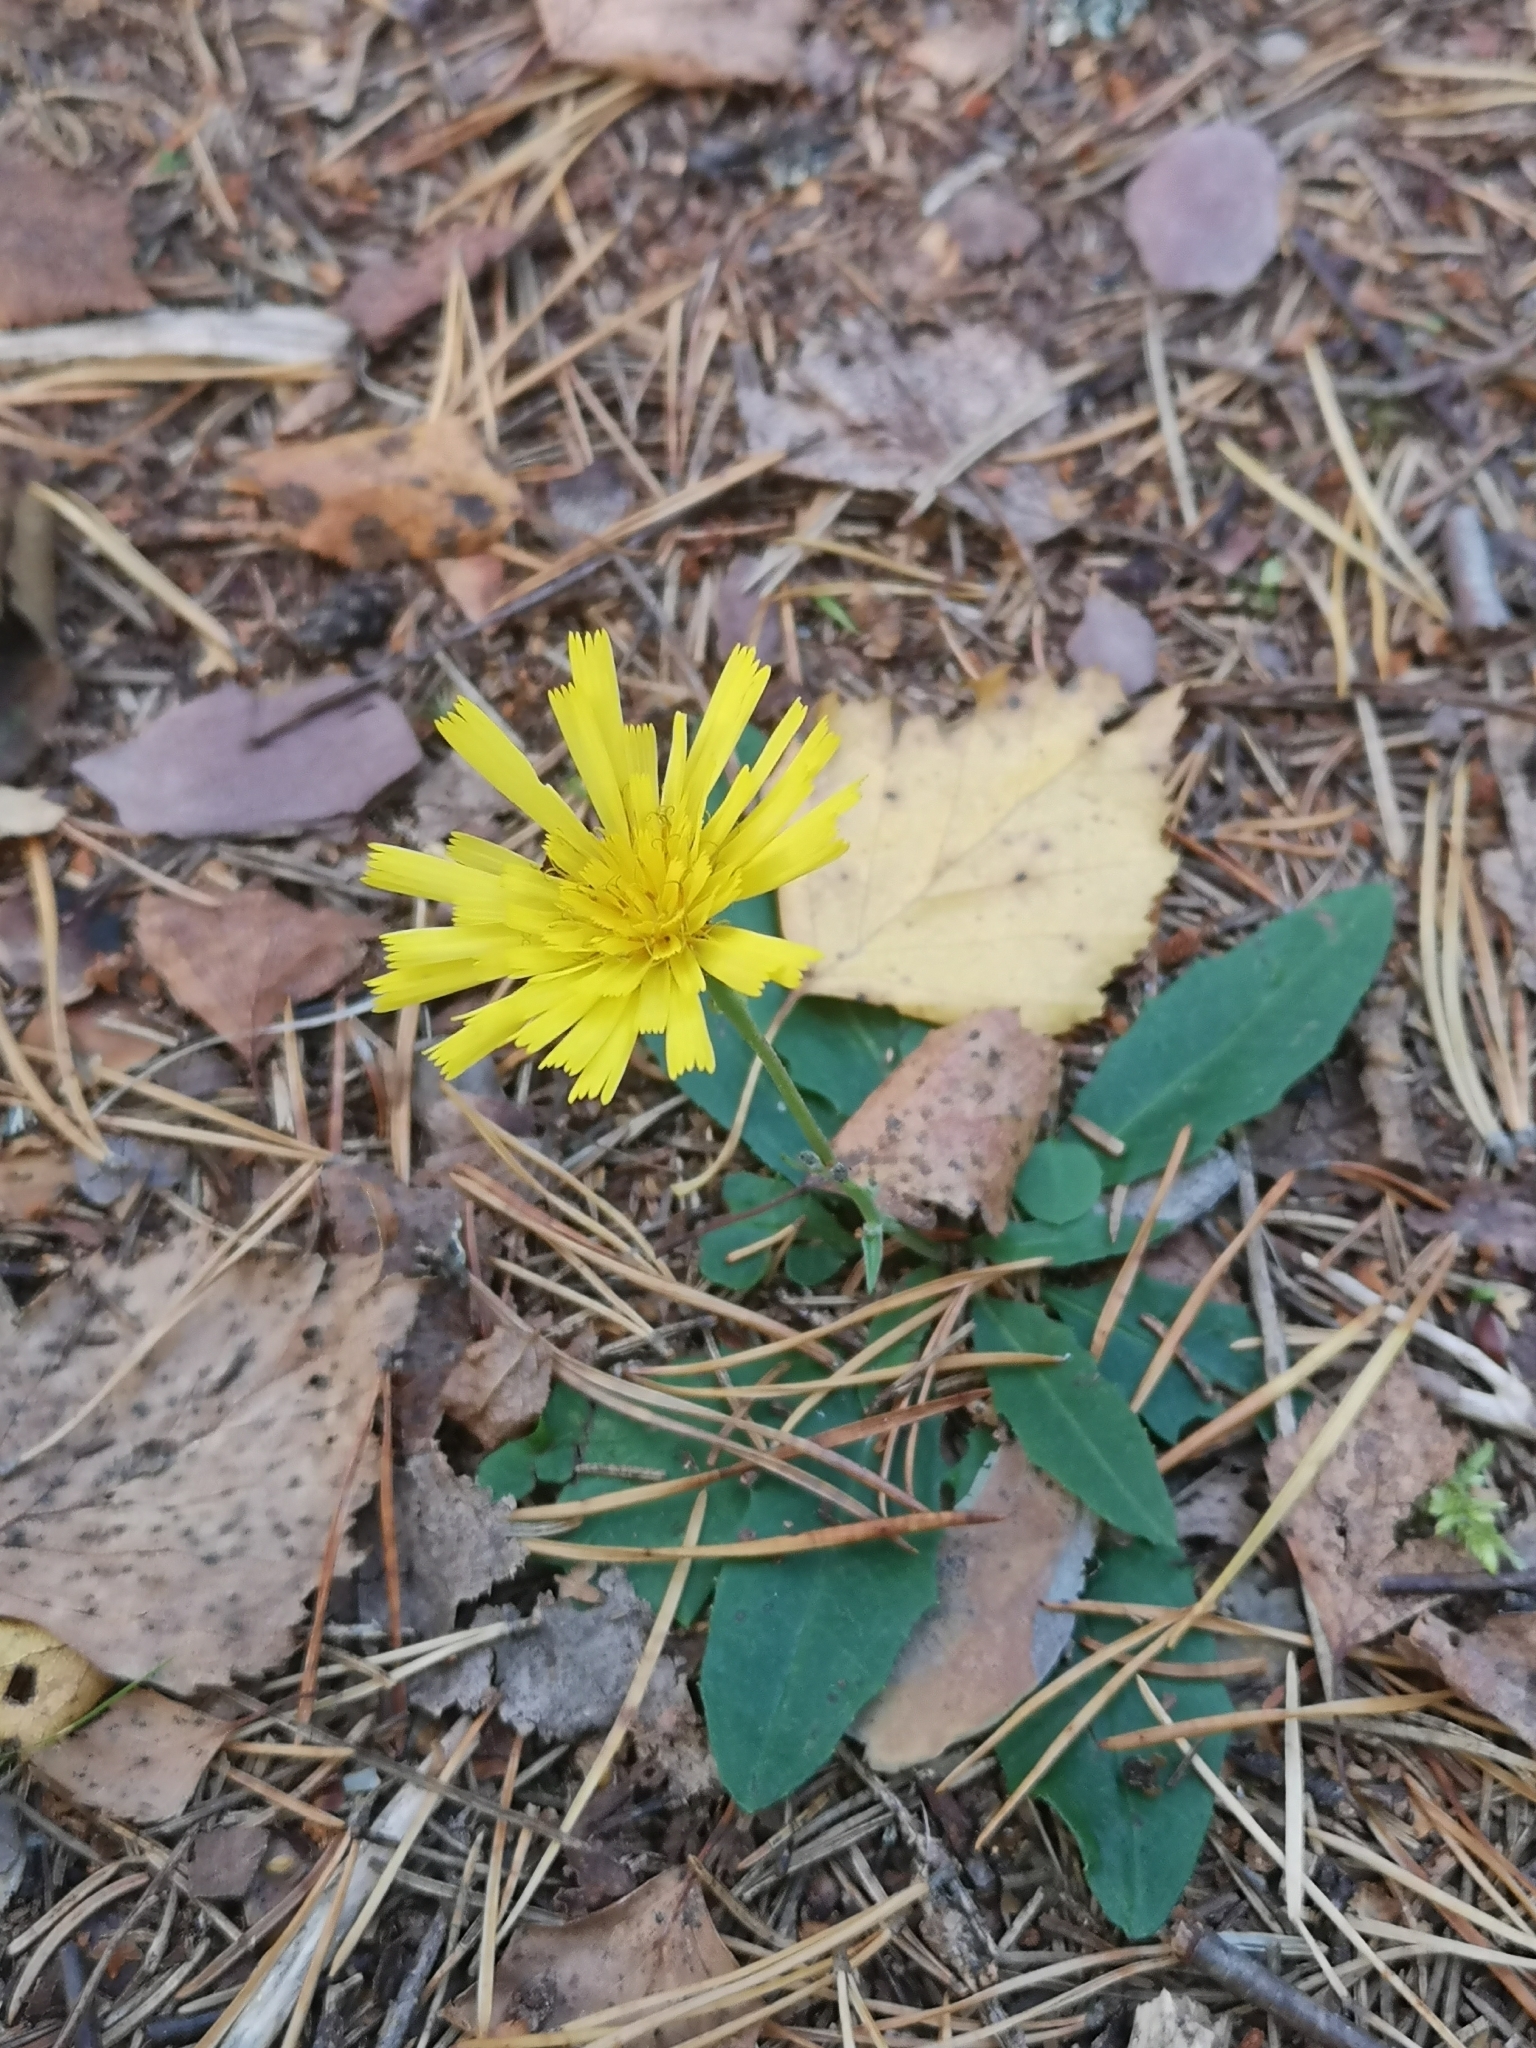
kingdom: Plantae
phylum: Tracheophyta
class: Magnoliopsida
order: Asterales
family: Asteraceae
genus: Pilosella
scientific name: Pilosella officinarum
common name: Mouse-ear hawkweed
